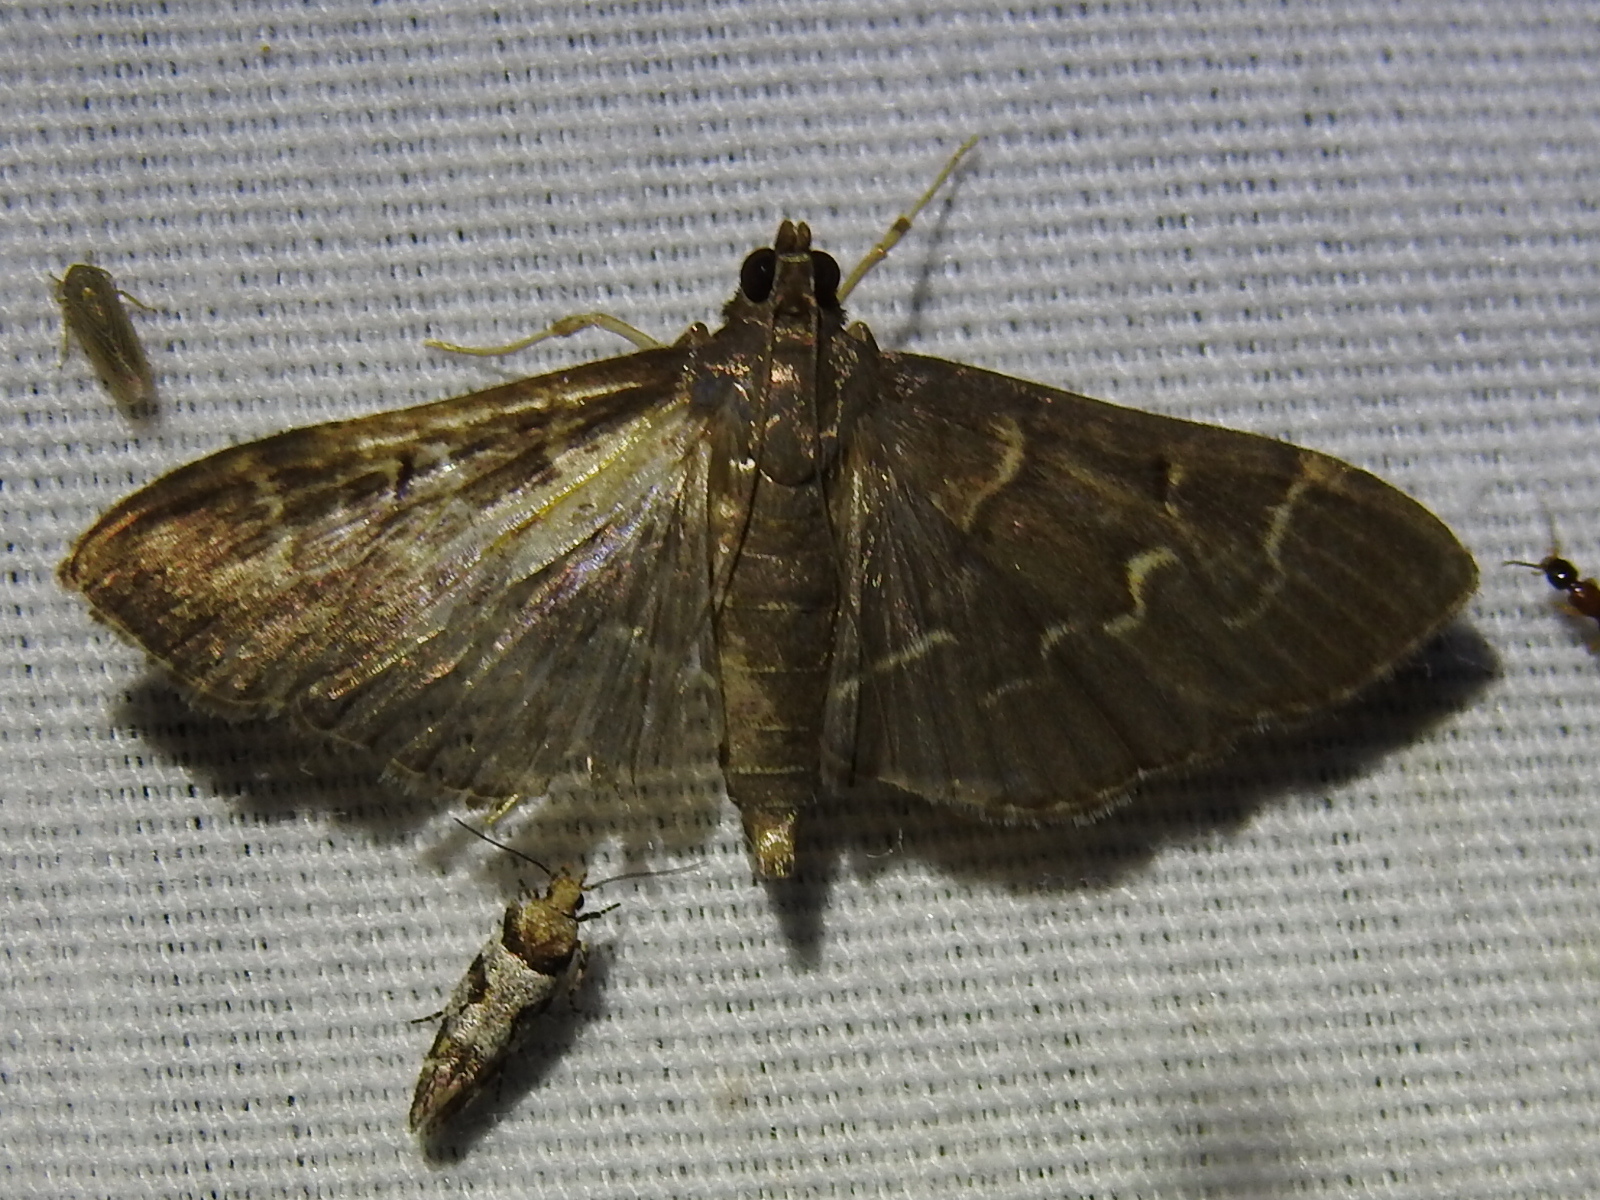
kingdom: Animalia
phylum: Arthropoda
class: Insecta
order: Lepidoptera
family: Crambidae
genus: Pilocrocis
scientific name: Pilocrocis ramentalis
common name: Scraped pilocrocis
